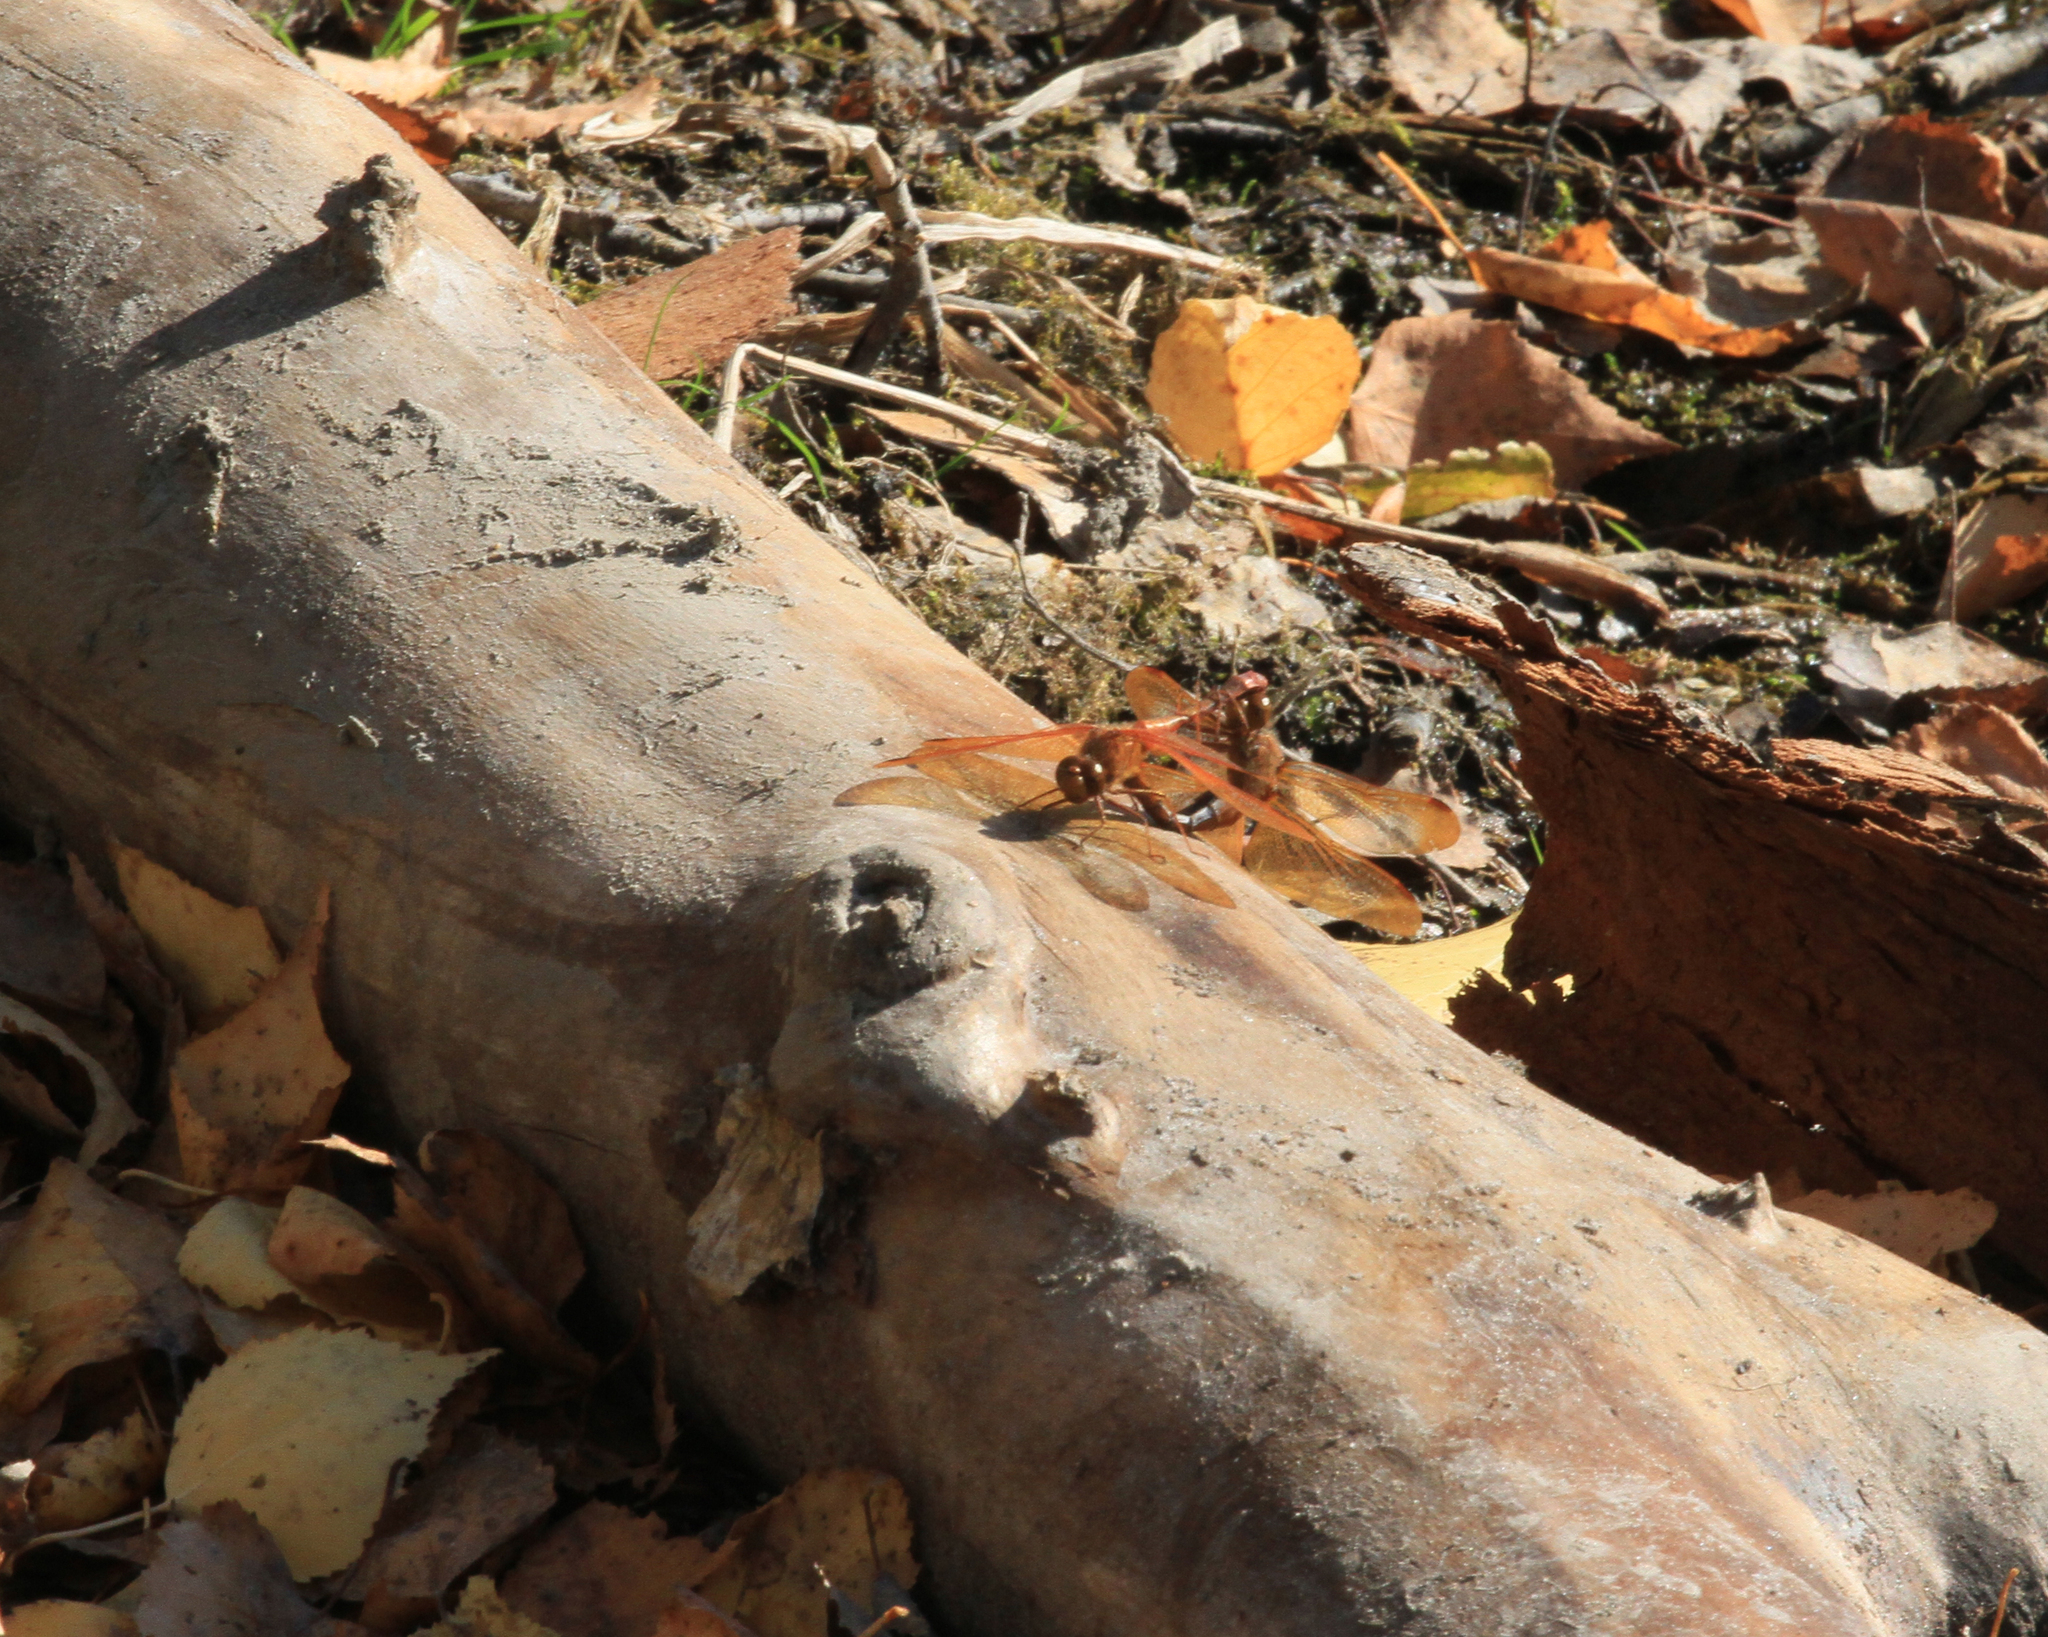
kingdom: Animalia
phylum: Arthropoda
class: Insecta
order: Odonata
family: Libellulidae
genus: Sympetrum
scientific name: Sympetrum croceolum
